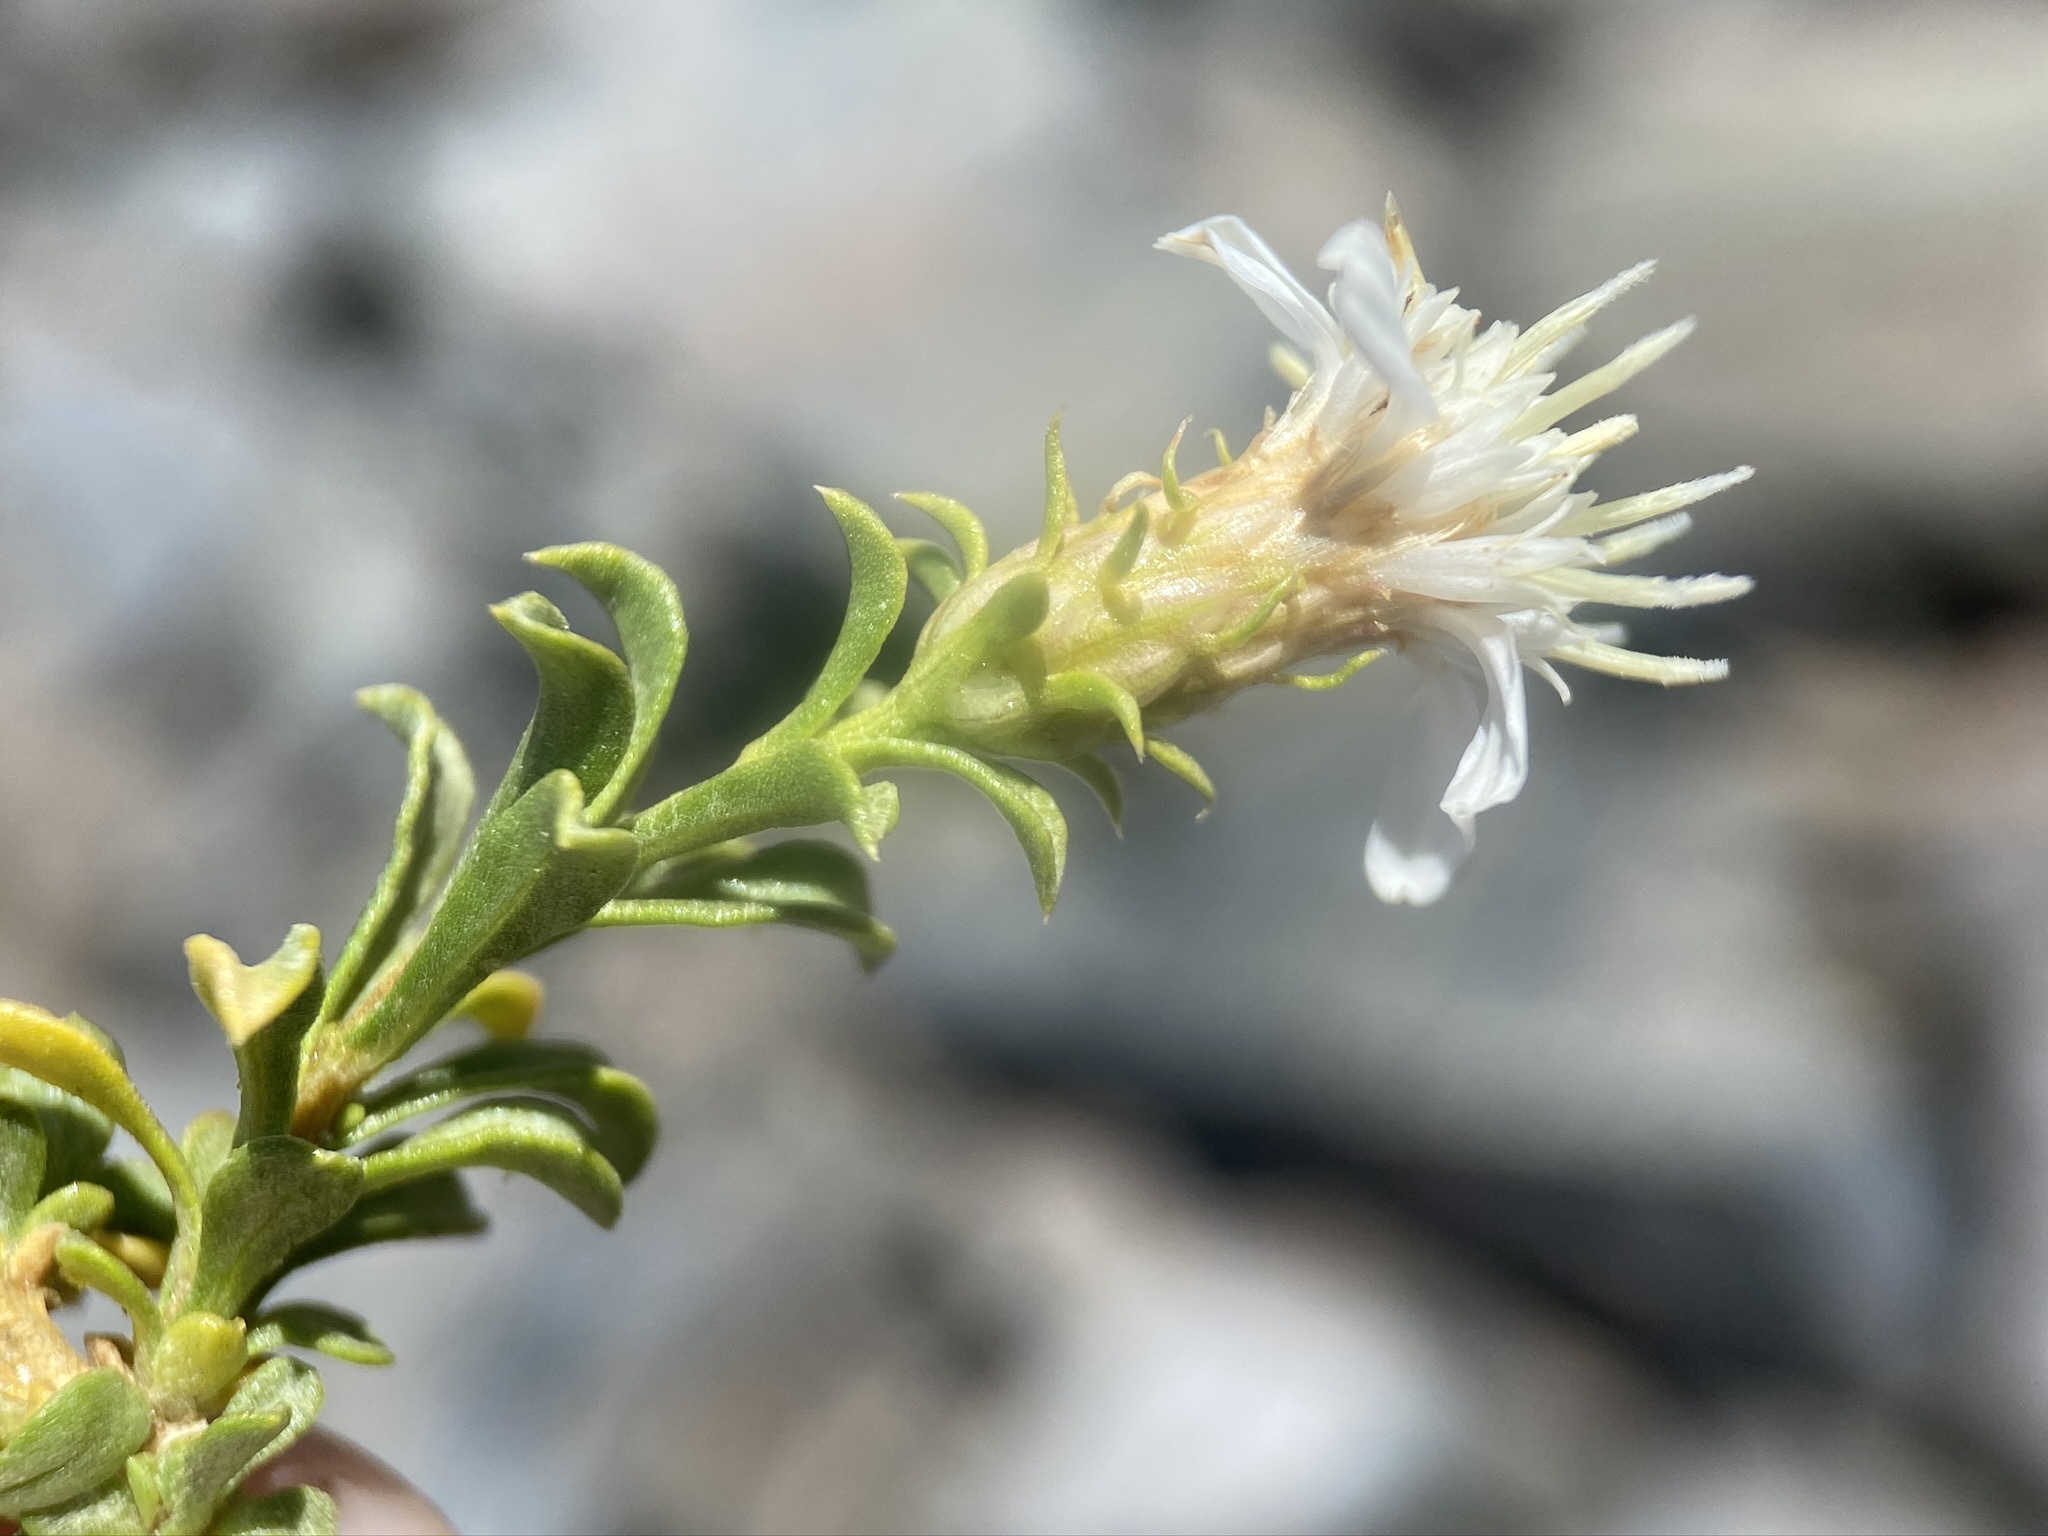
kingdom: Plantae
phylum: Tracheophyta
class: Magnoliopsida
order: Asterales
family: Asteraceae
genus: Ericameria
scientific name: Ericameria gilmanii
